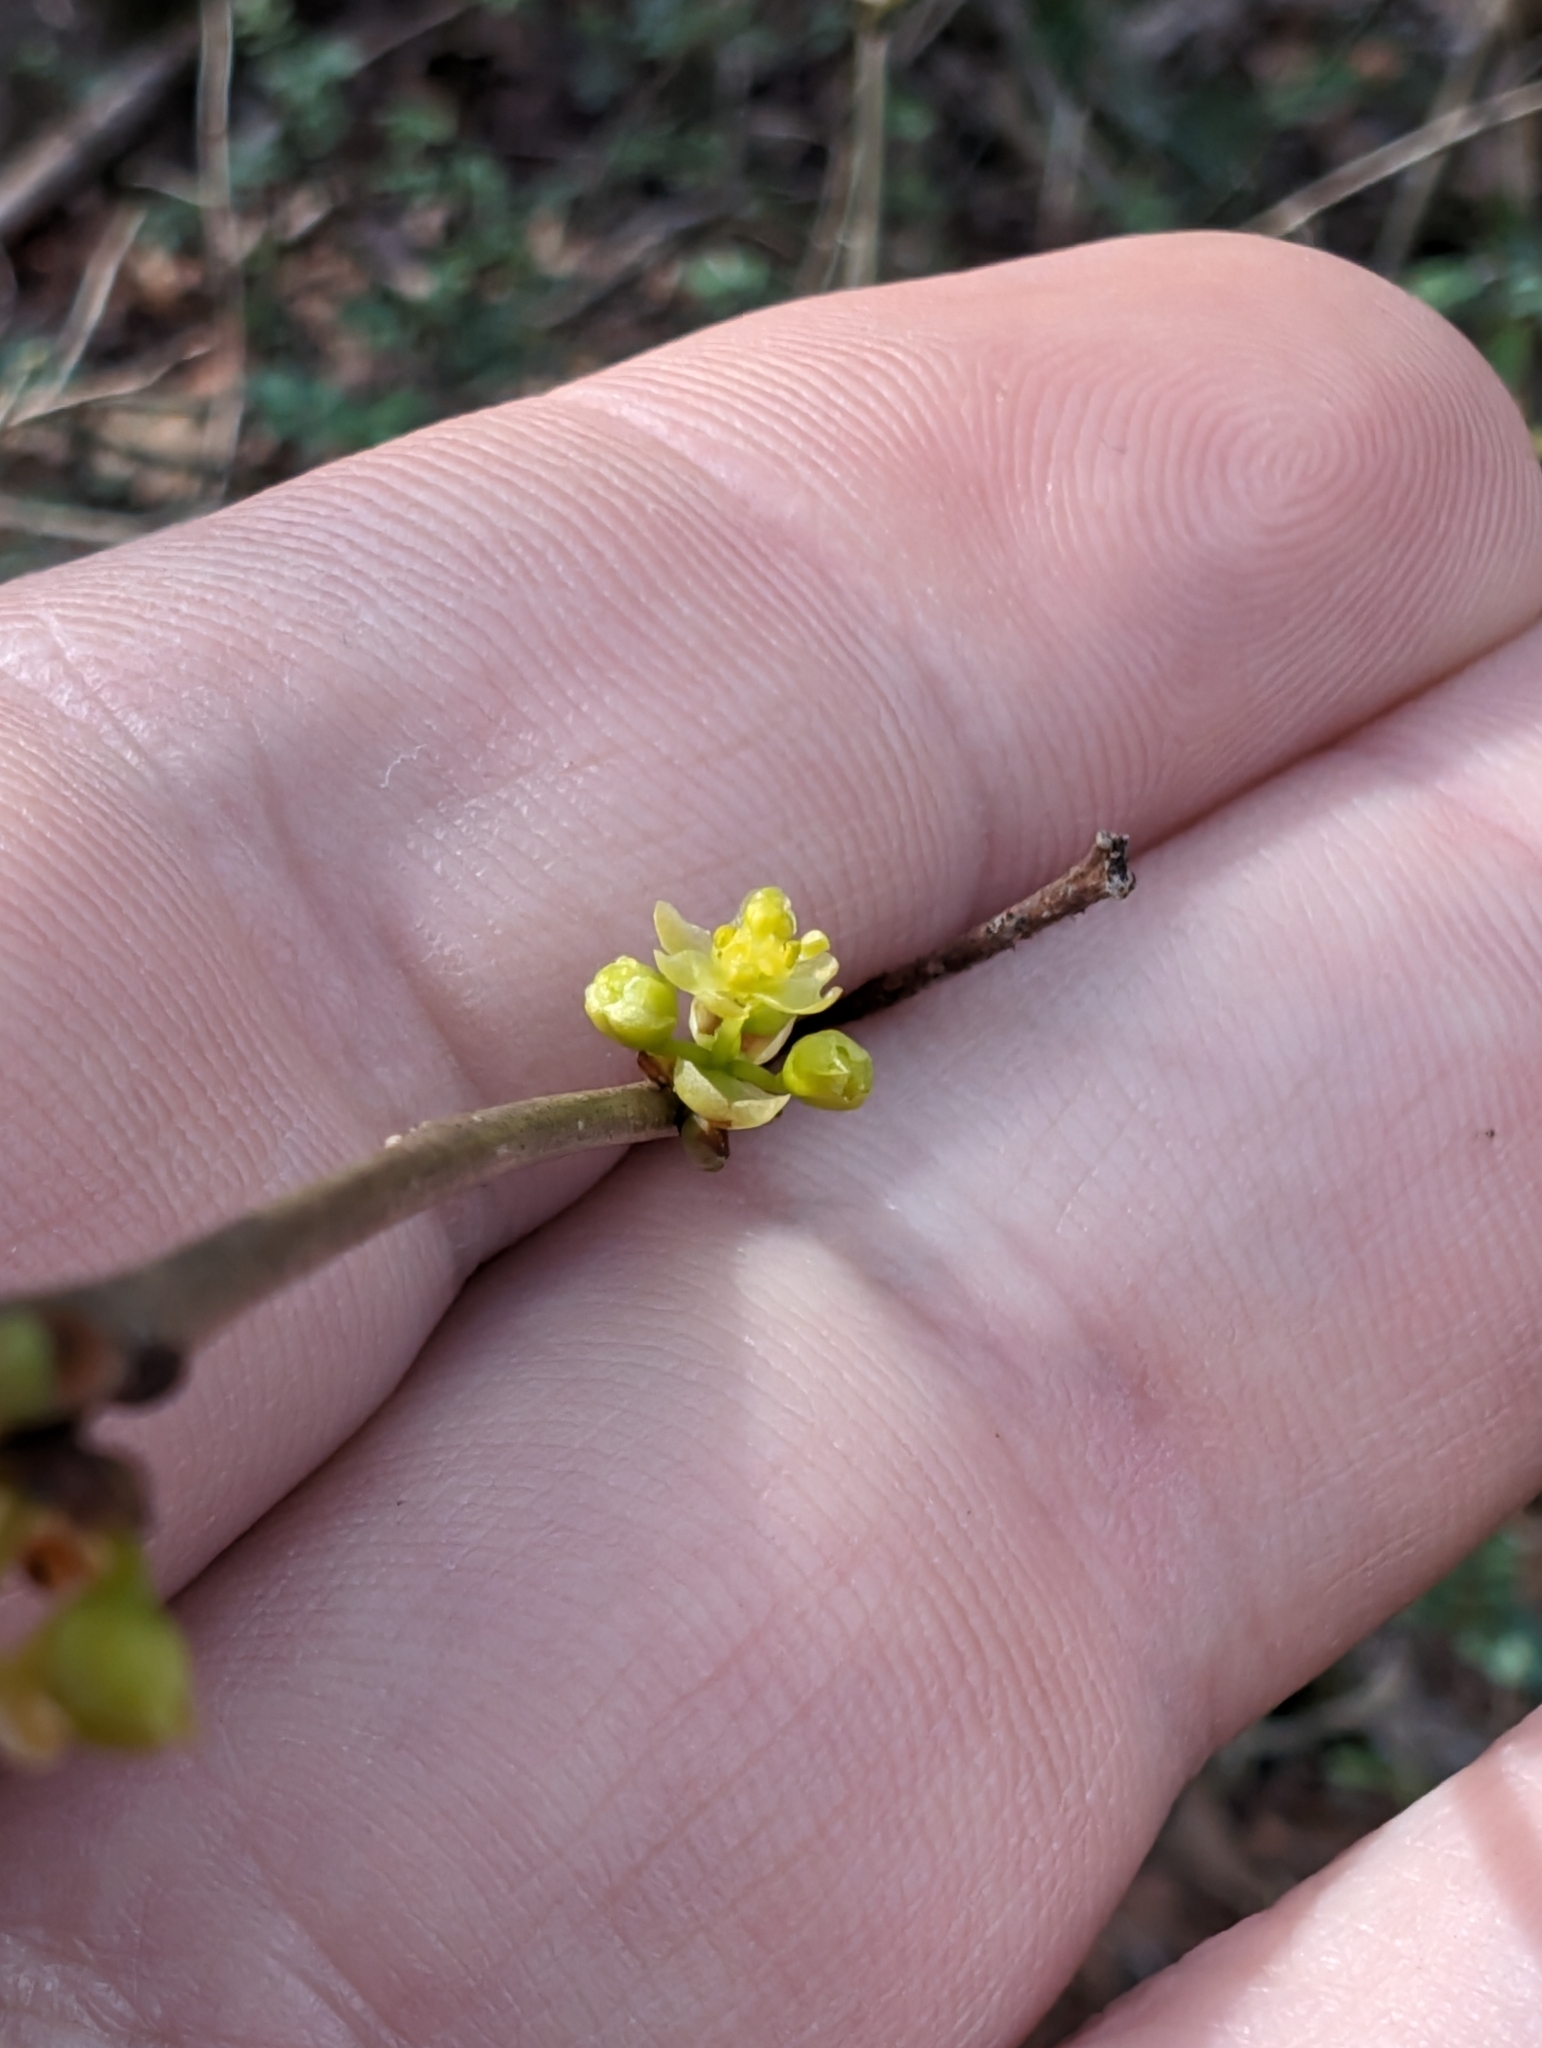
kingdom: Plantae
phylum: Tracheophyta
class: Magnoliopsida
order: Laurales
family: Lauraceae
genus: Lindera
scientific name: Lindera benzoin
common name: Spicebush
